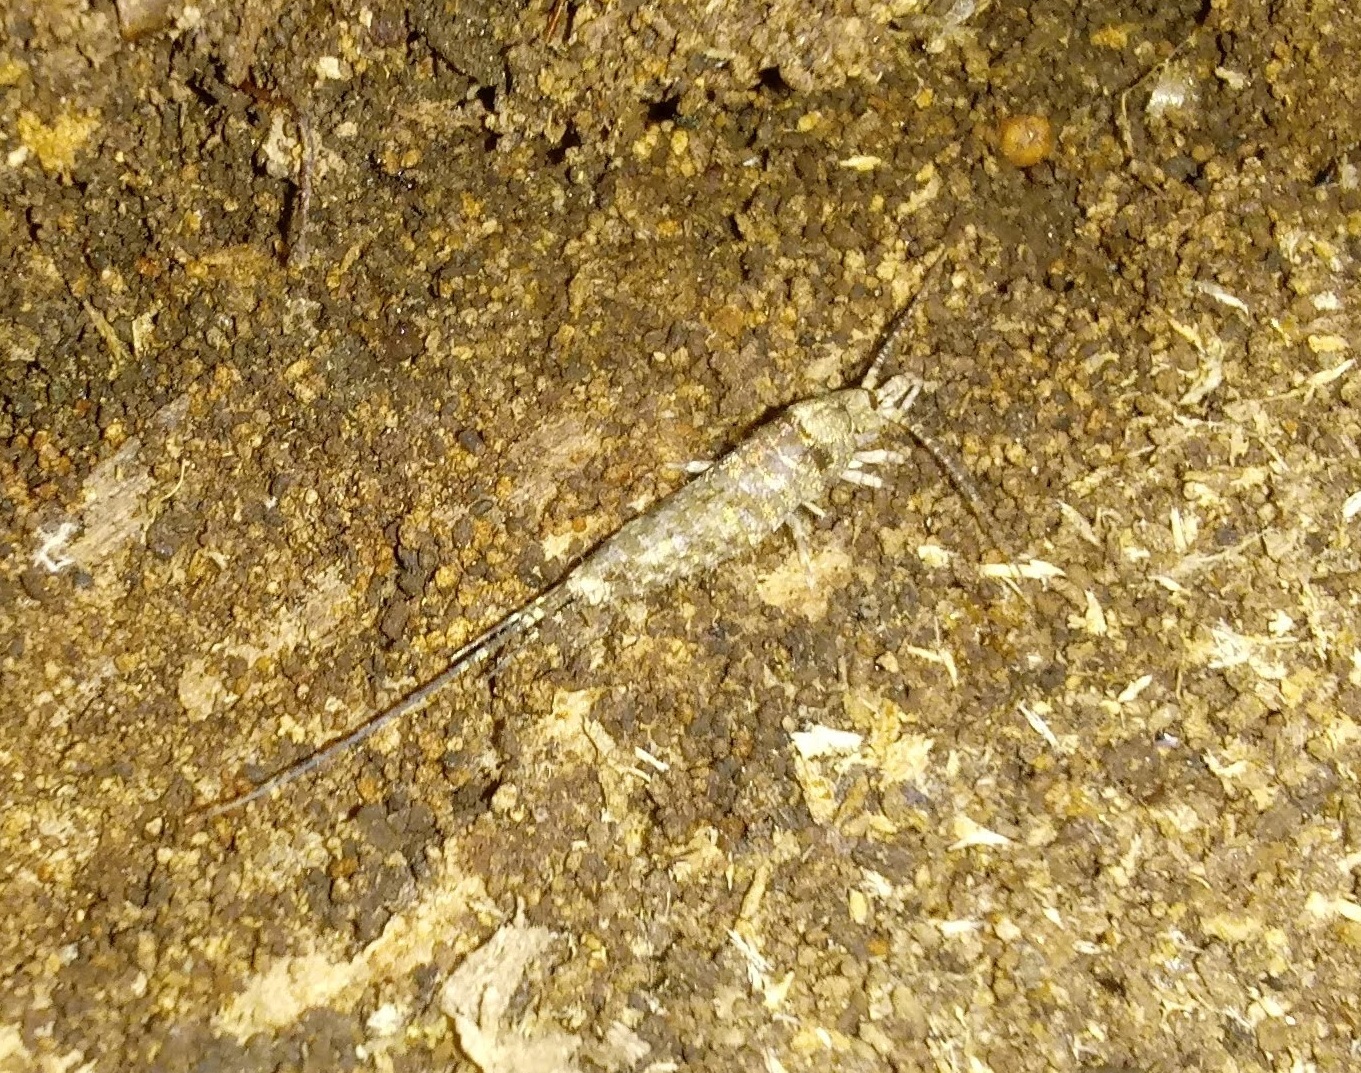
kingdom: Animalia
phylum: Arthropoda
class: Insecta
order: Archaeognatha
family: Machilidae
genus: Trigoniophthalmus
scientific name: Trigoniophthalmus alternatus
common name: Jumping bristletail
